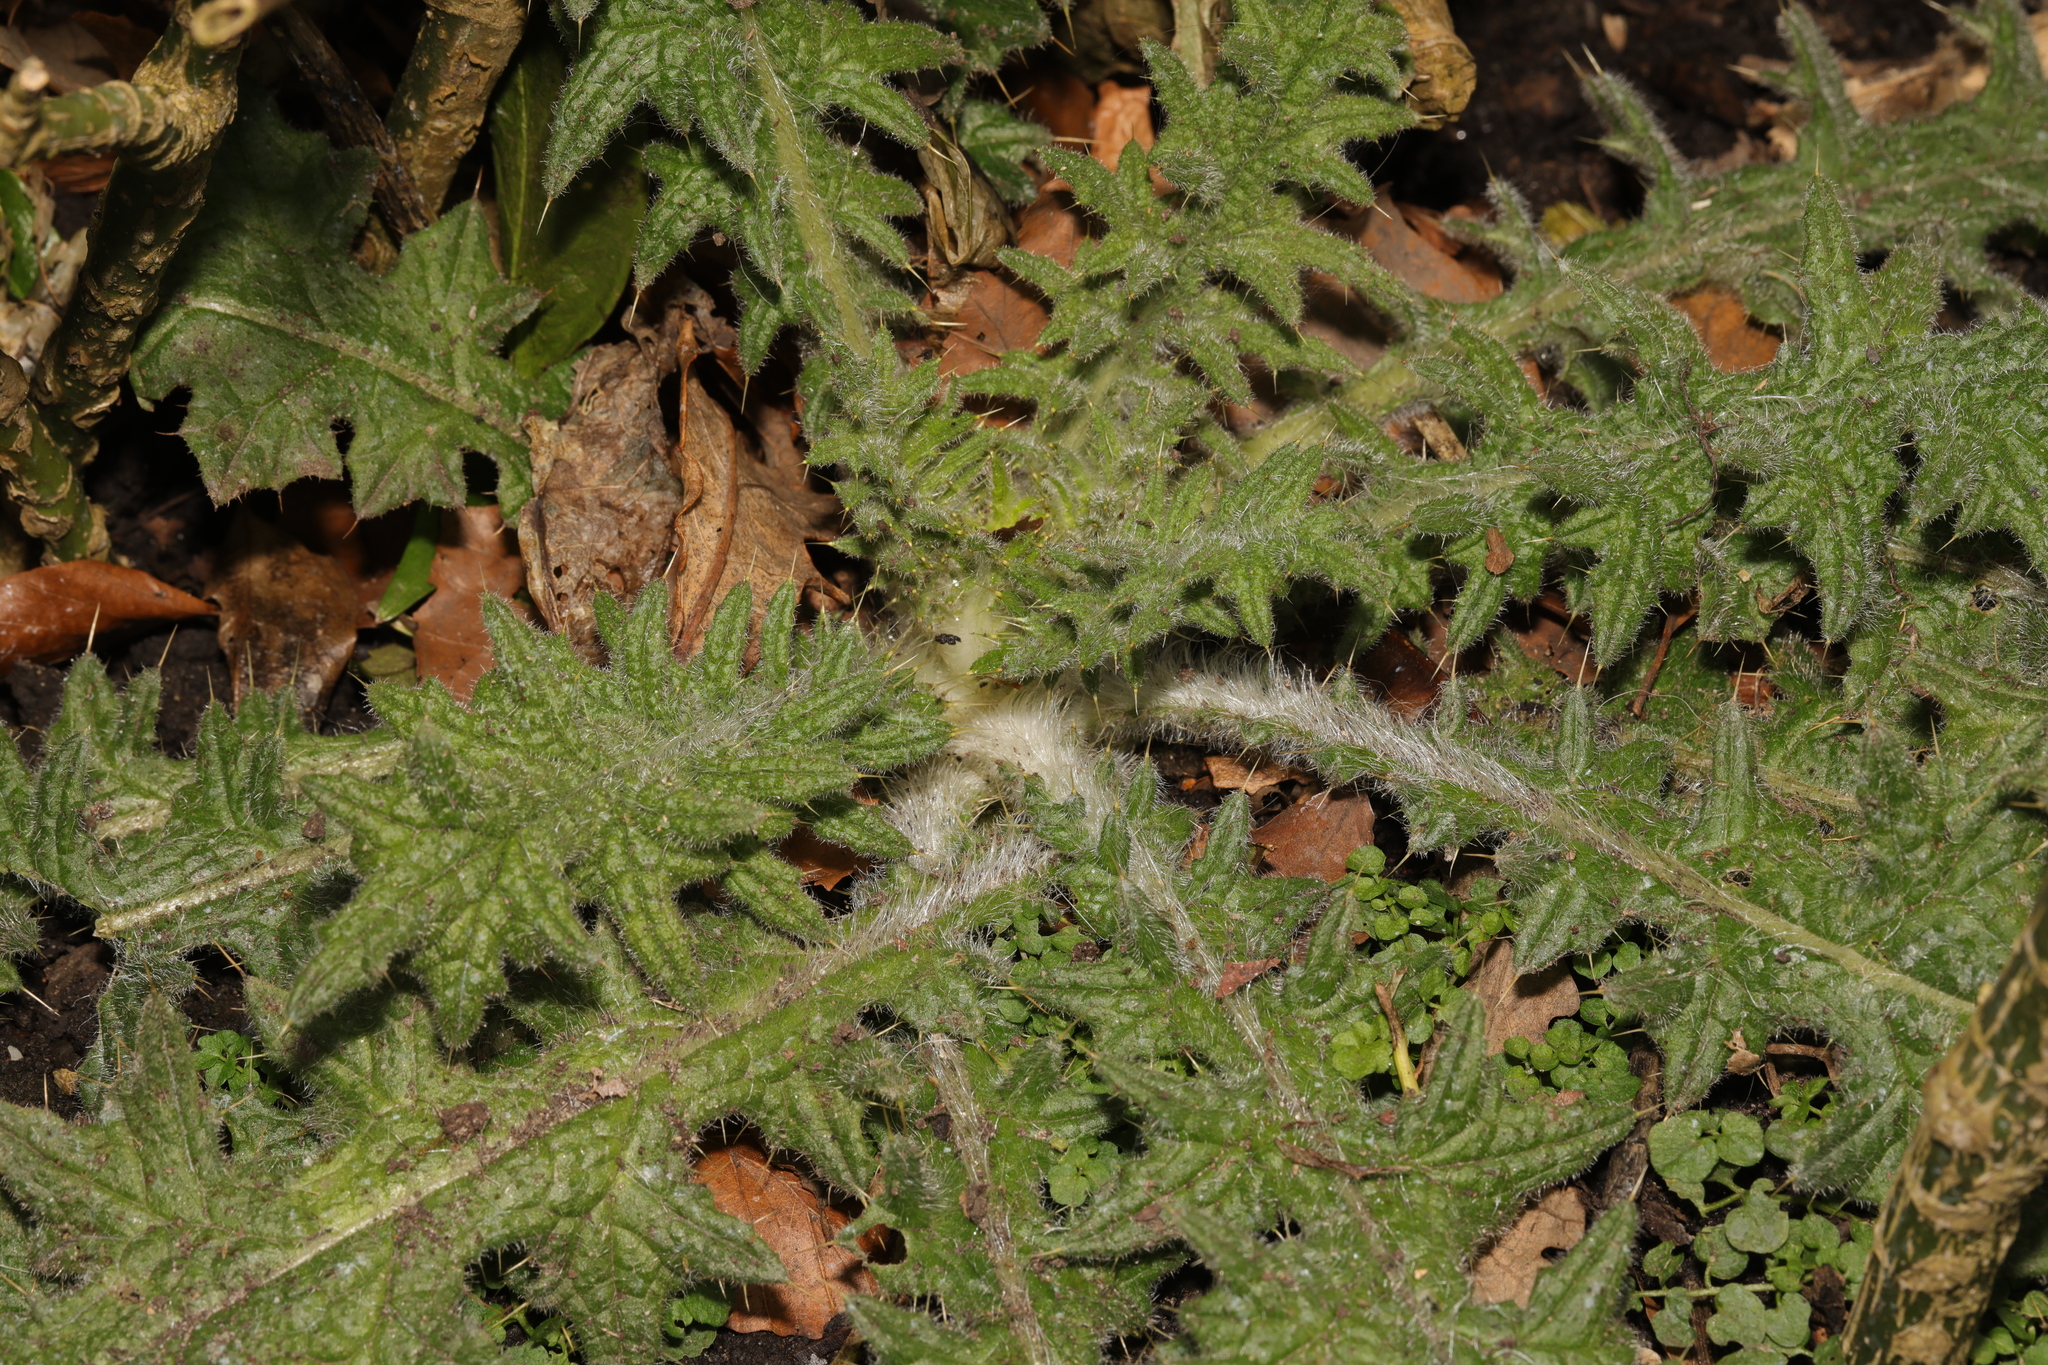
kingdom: Plantae
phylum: Tracheophyta
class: Magnoliopsida
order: Asterales
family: Asteraceae
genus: Cirsium
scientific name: Cirsium vulgare
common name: Bull thistle
